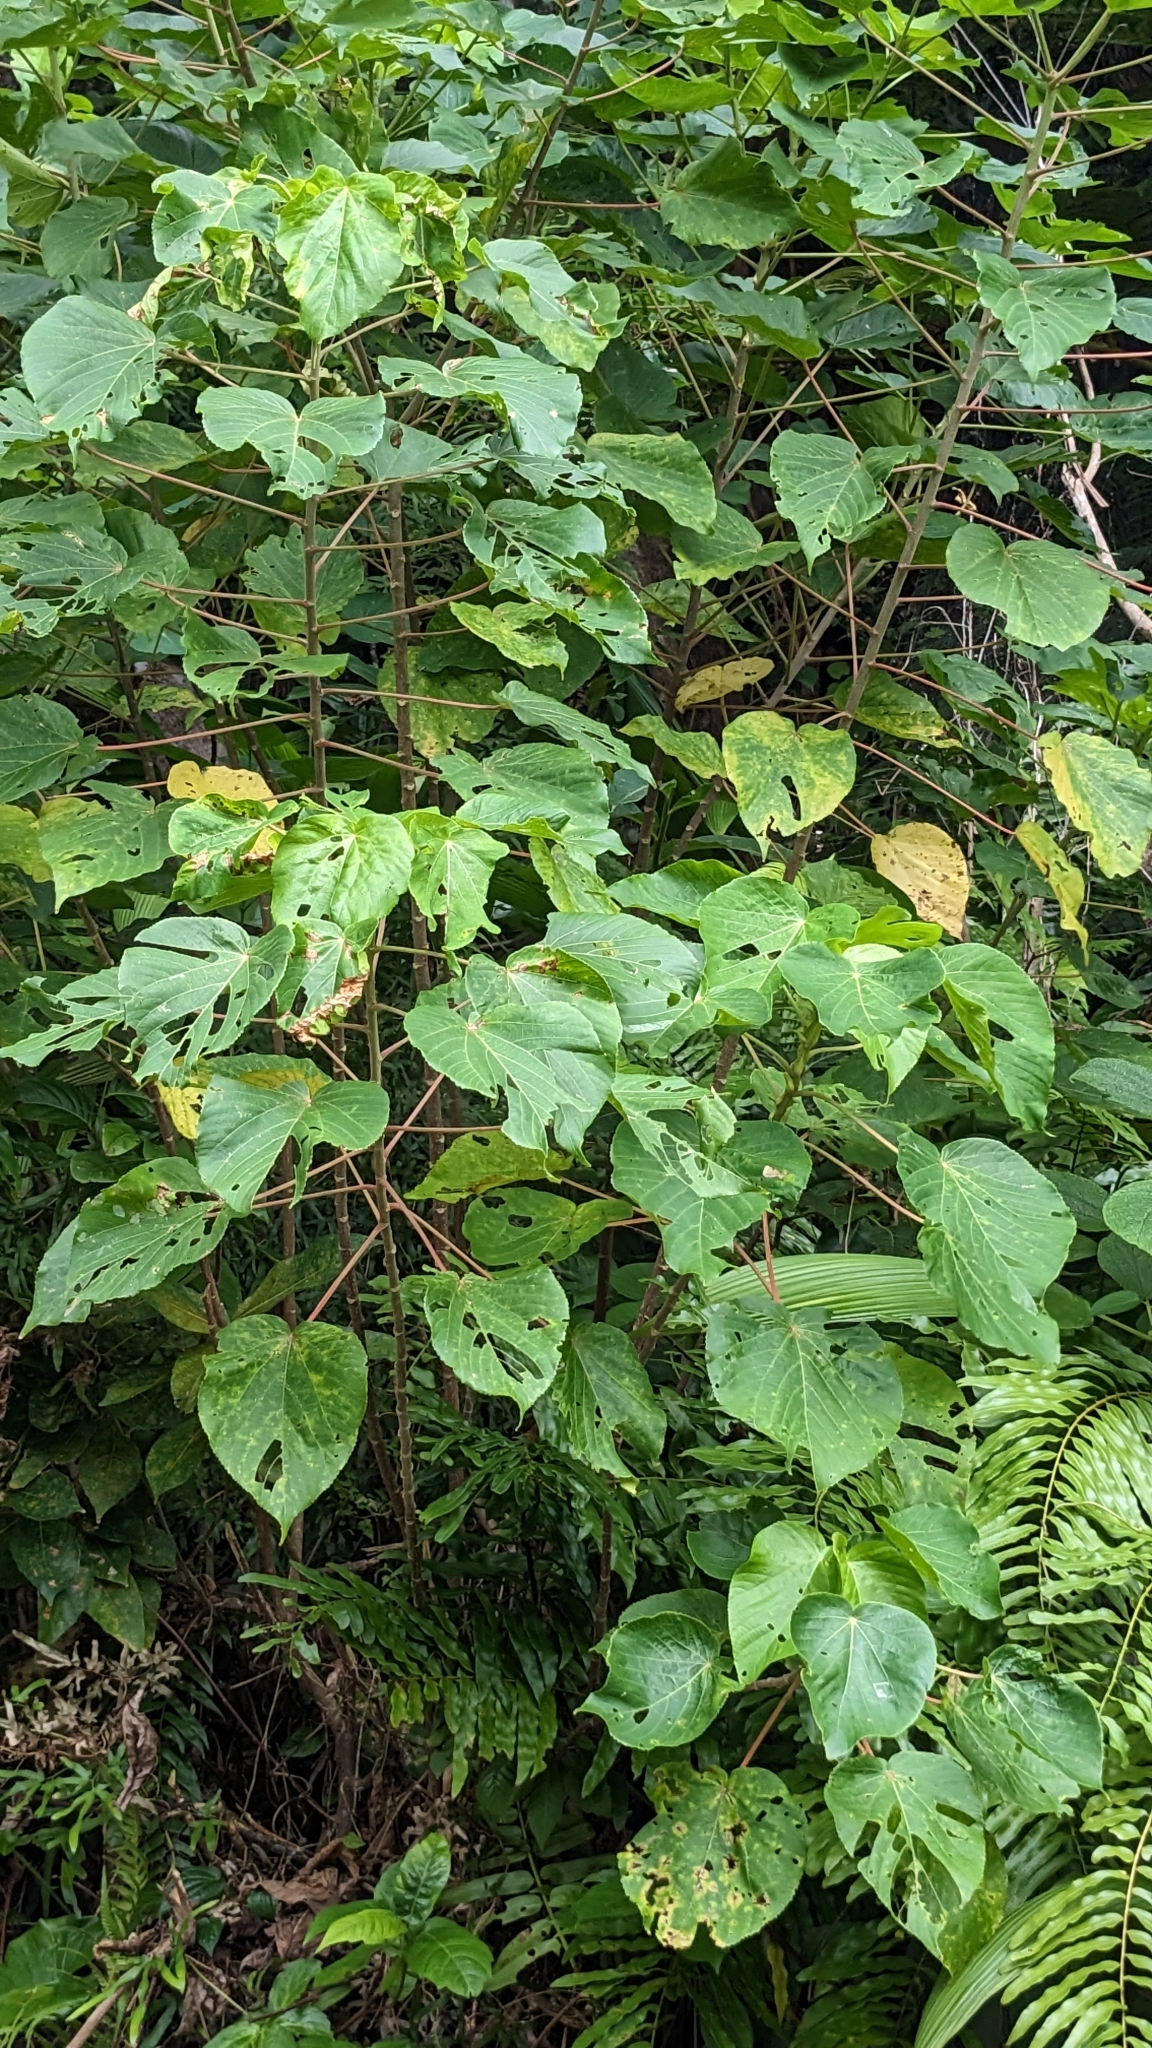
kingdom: Plantae
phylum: Tracheophyta
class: Magnoliopsida
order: Malpighiales
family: Euphorbiaceae
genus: Acalypha
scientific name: Acalypha grandibracteata
